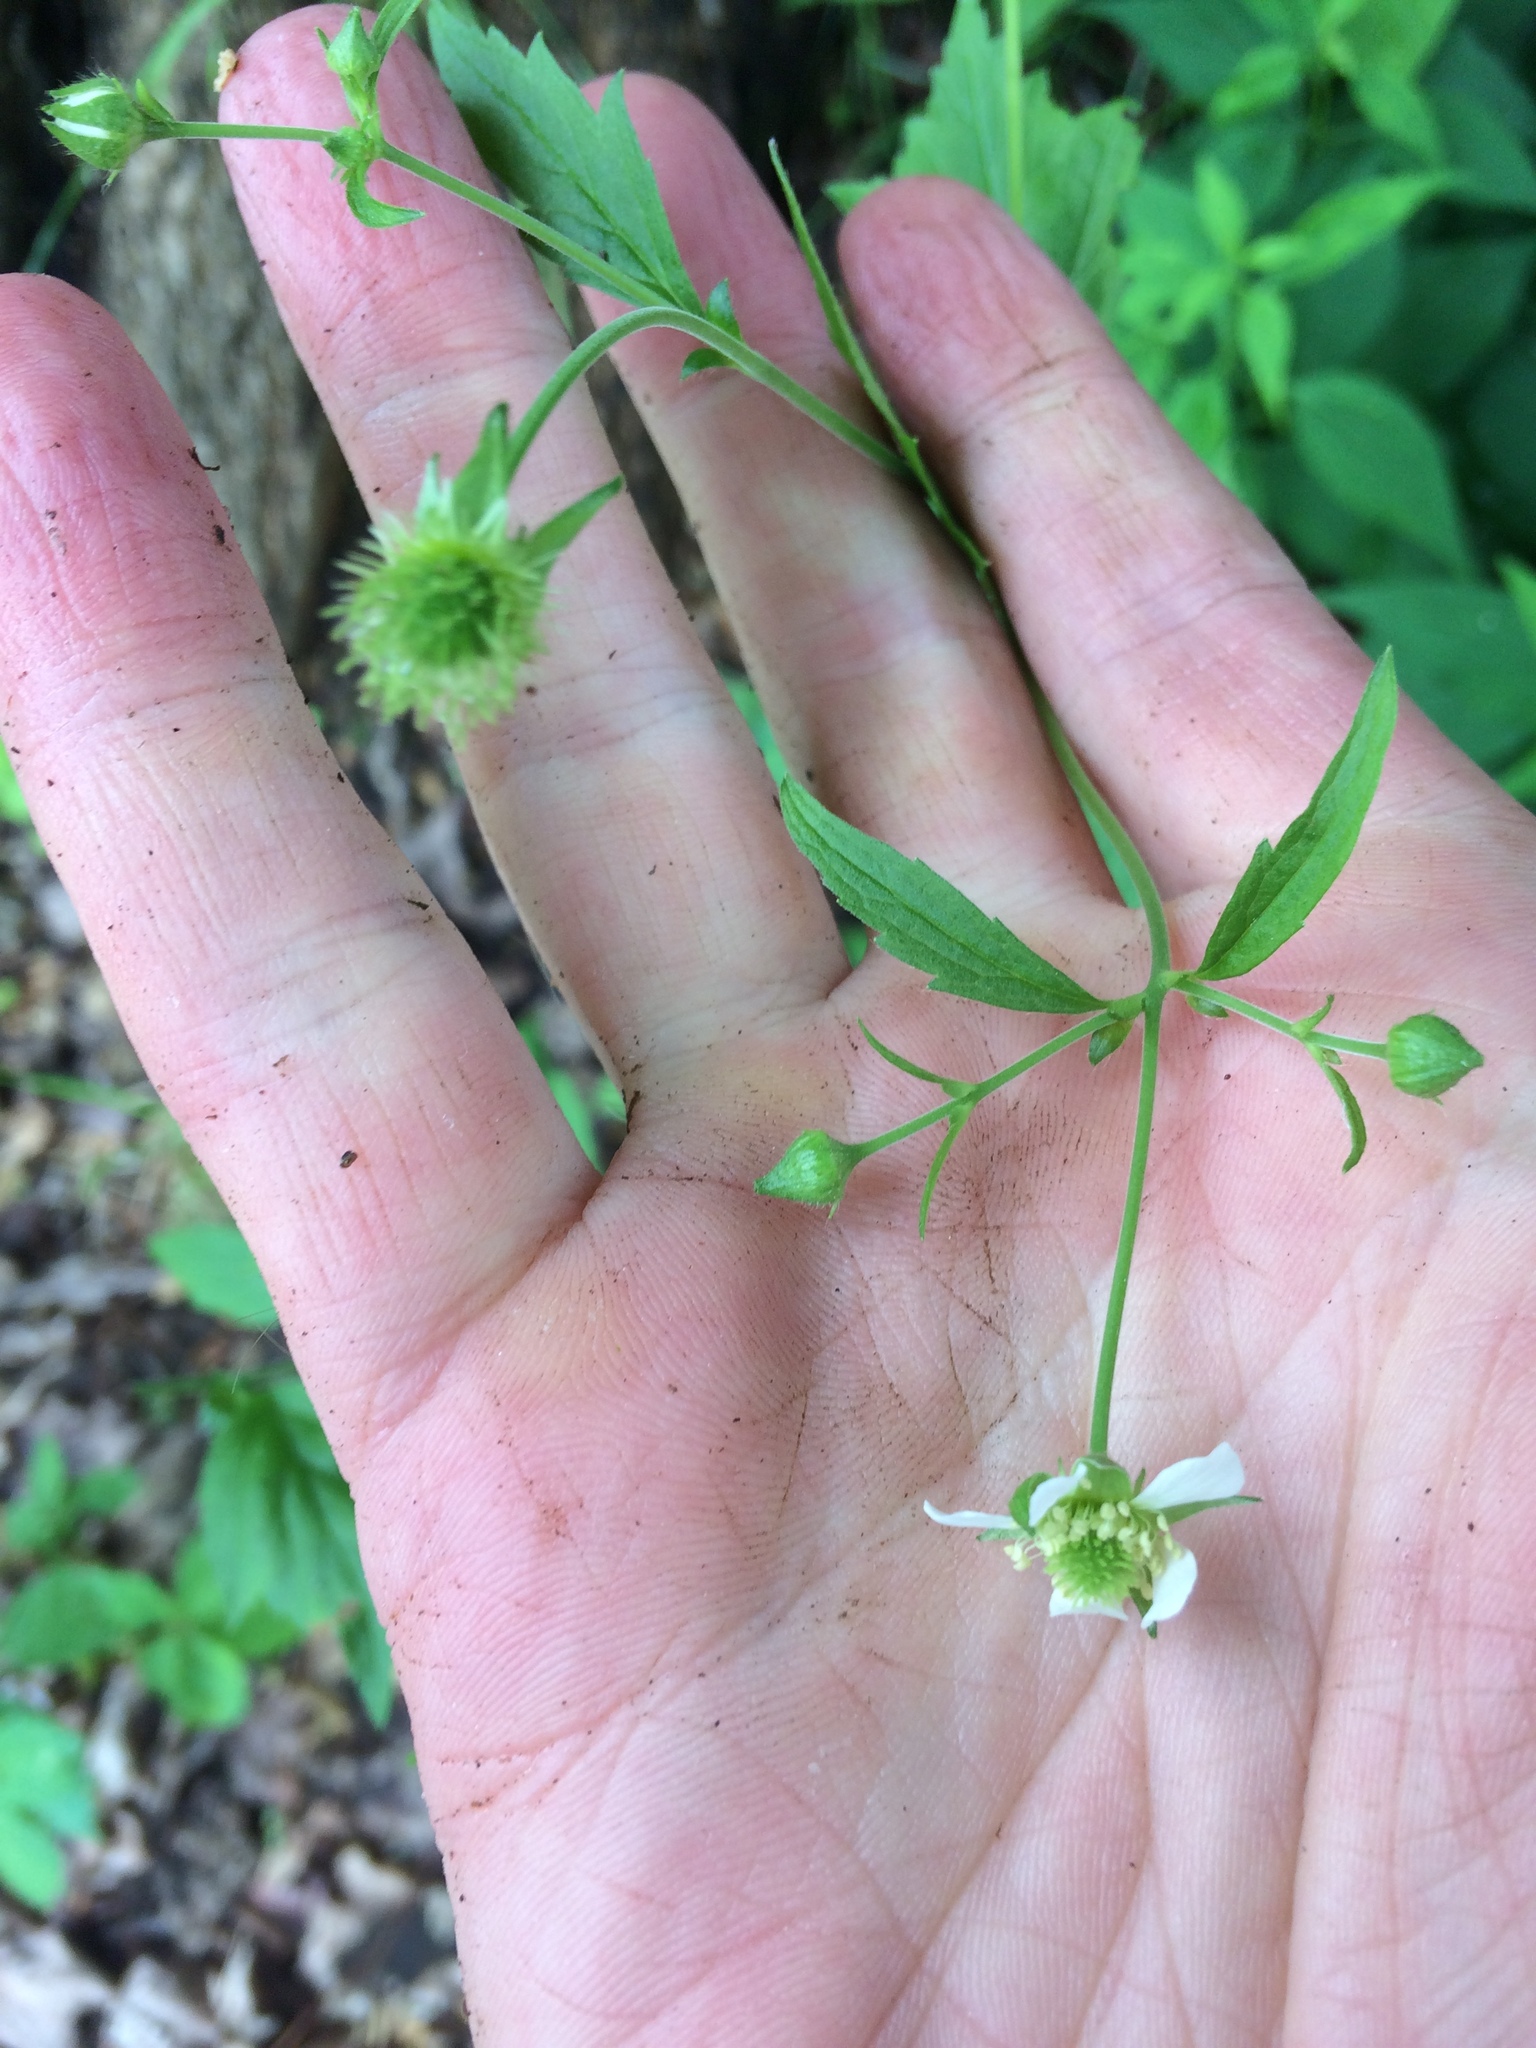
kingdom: Plantae
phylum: Tracheophyta
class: Magnoliopsida
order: Rosales
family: Rosaceae
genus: Geum
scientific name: Geum canadense
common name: White avens
